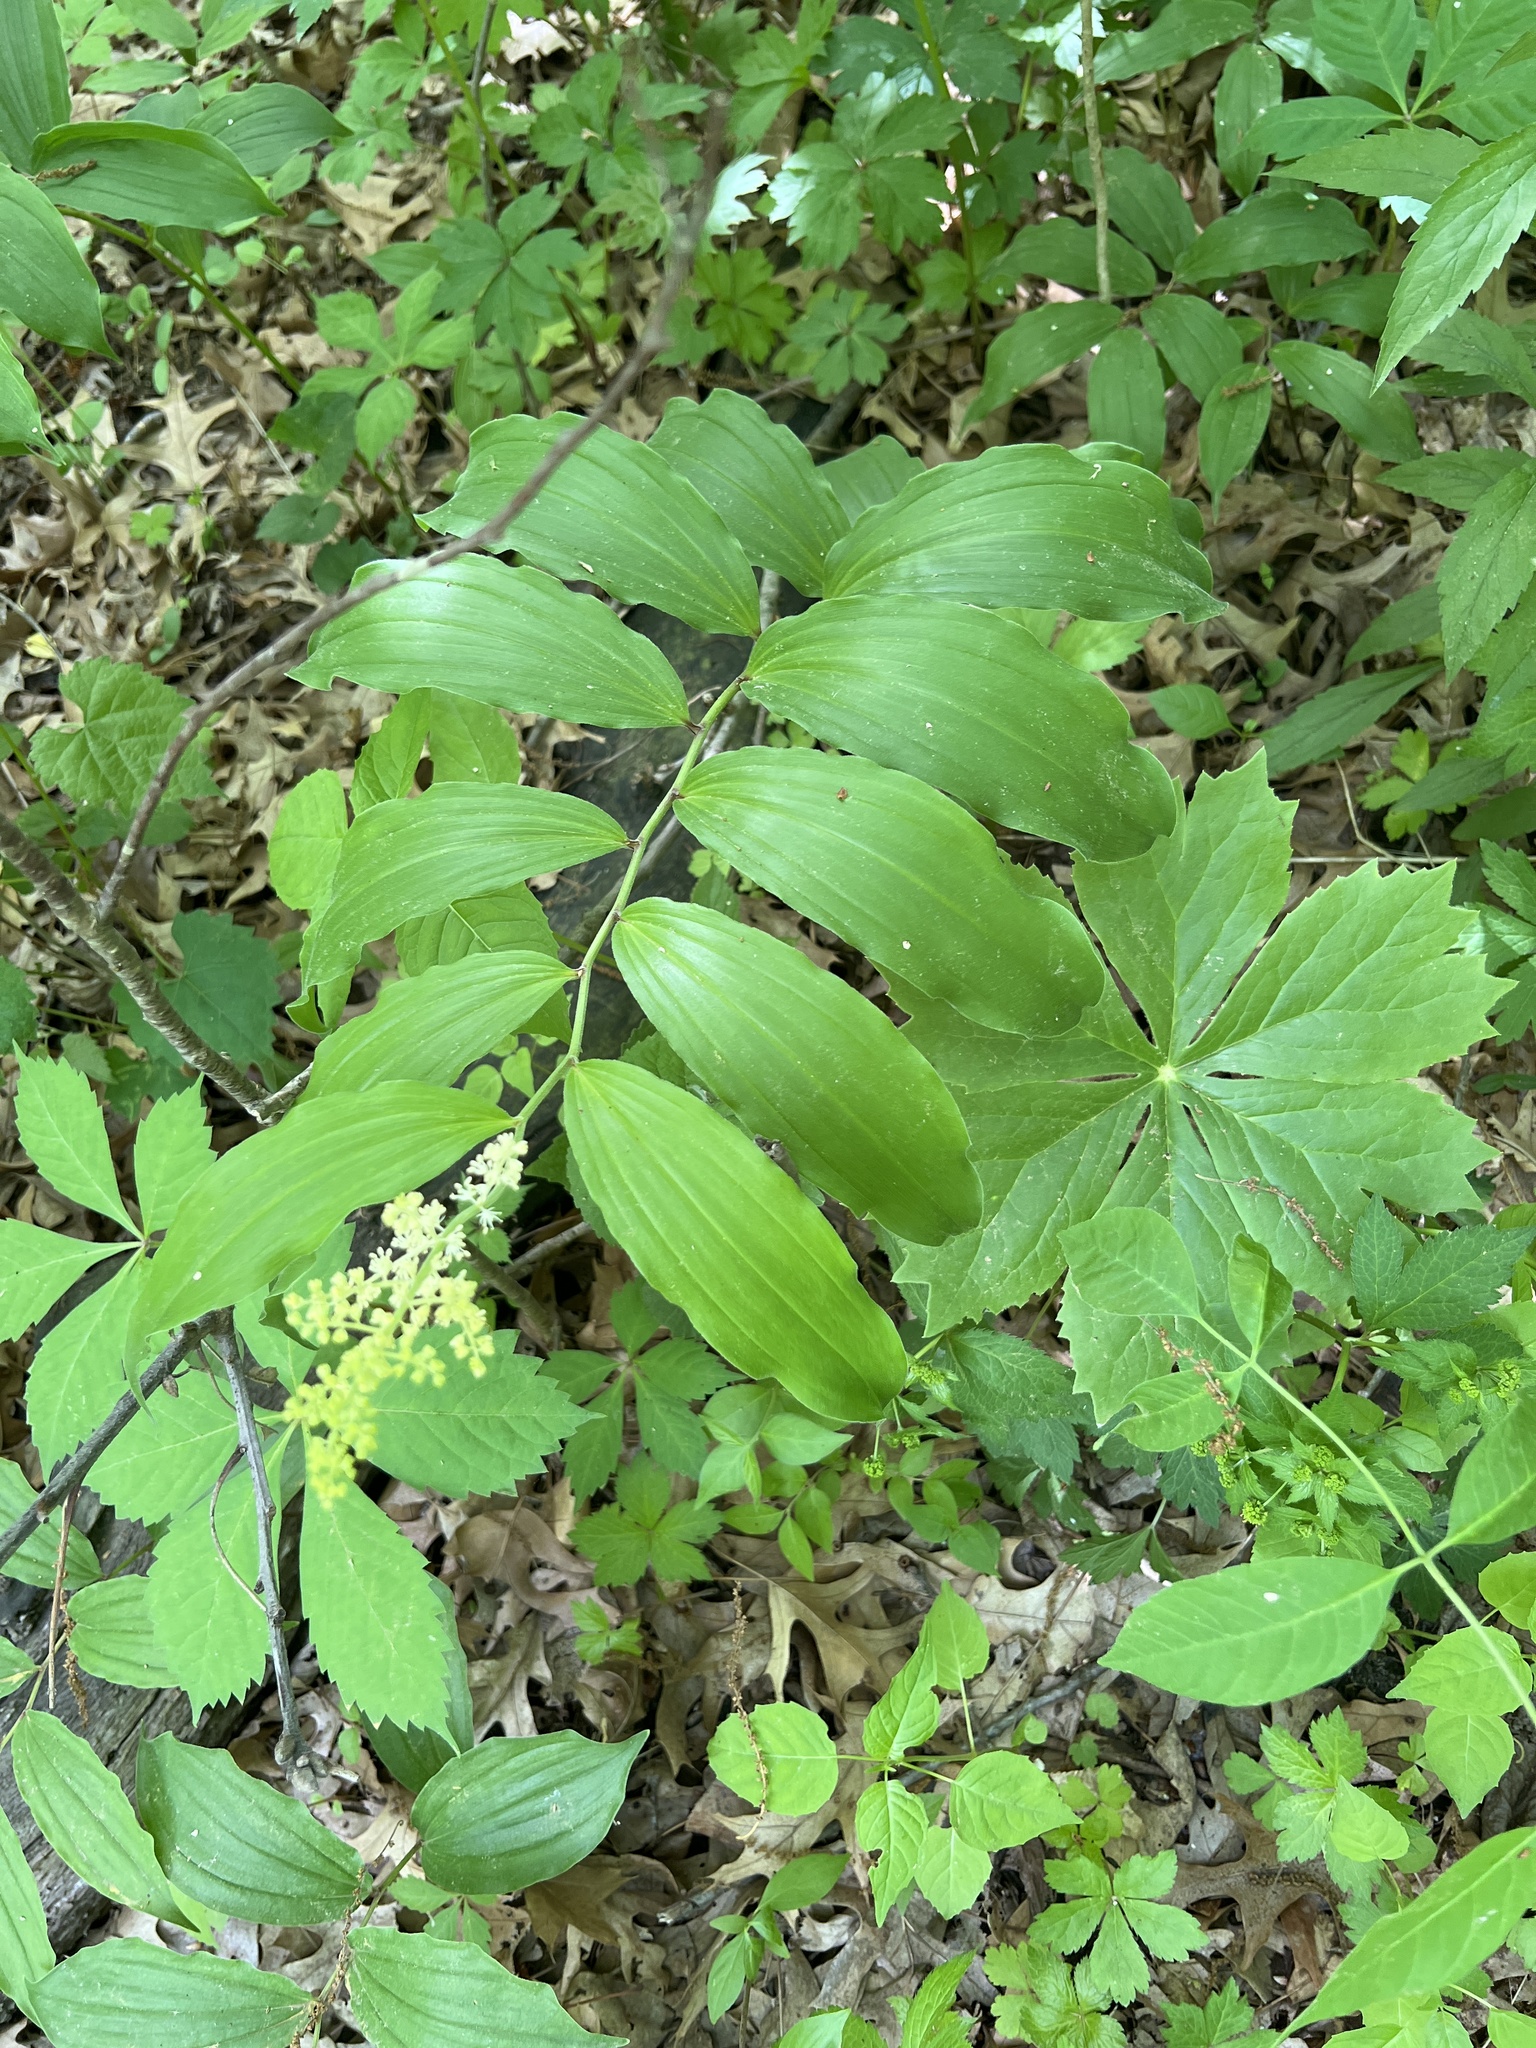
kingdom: Plantae
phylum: Tracheophyta
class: Liliopsida
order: Asparagales
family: Asparagaceae
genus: Maianthemum
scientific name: Maianthemum racemosum
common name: False spikenard
